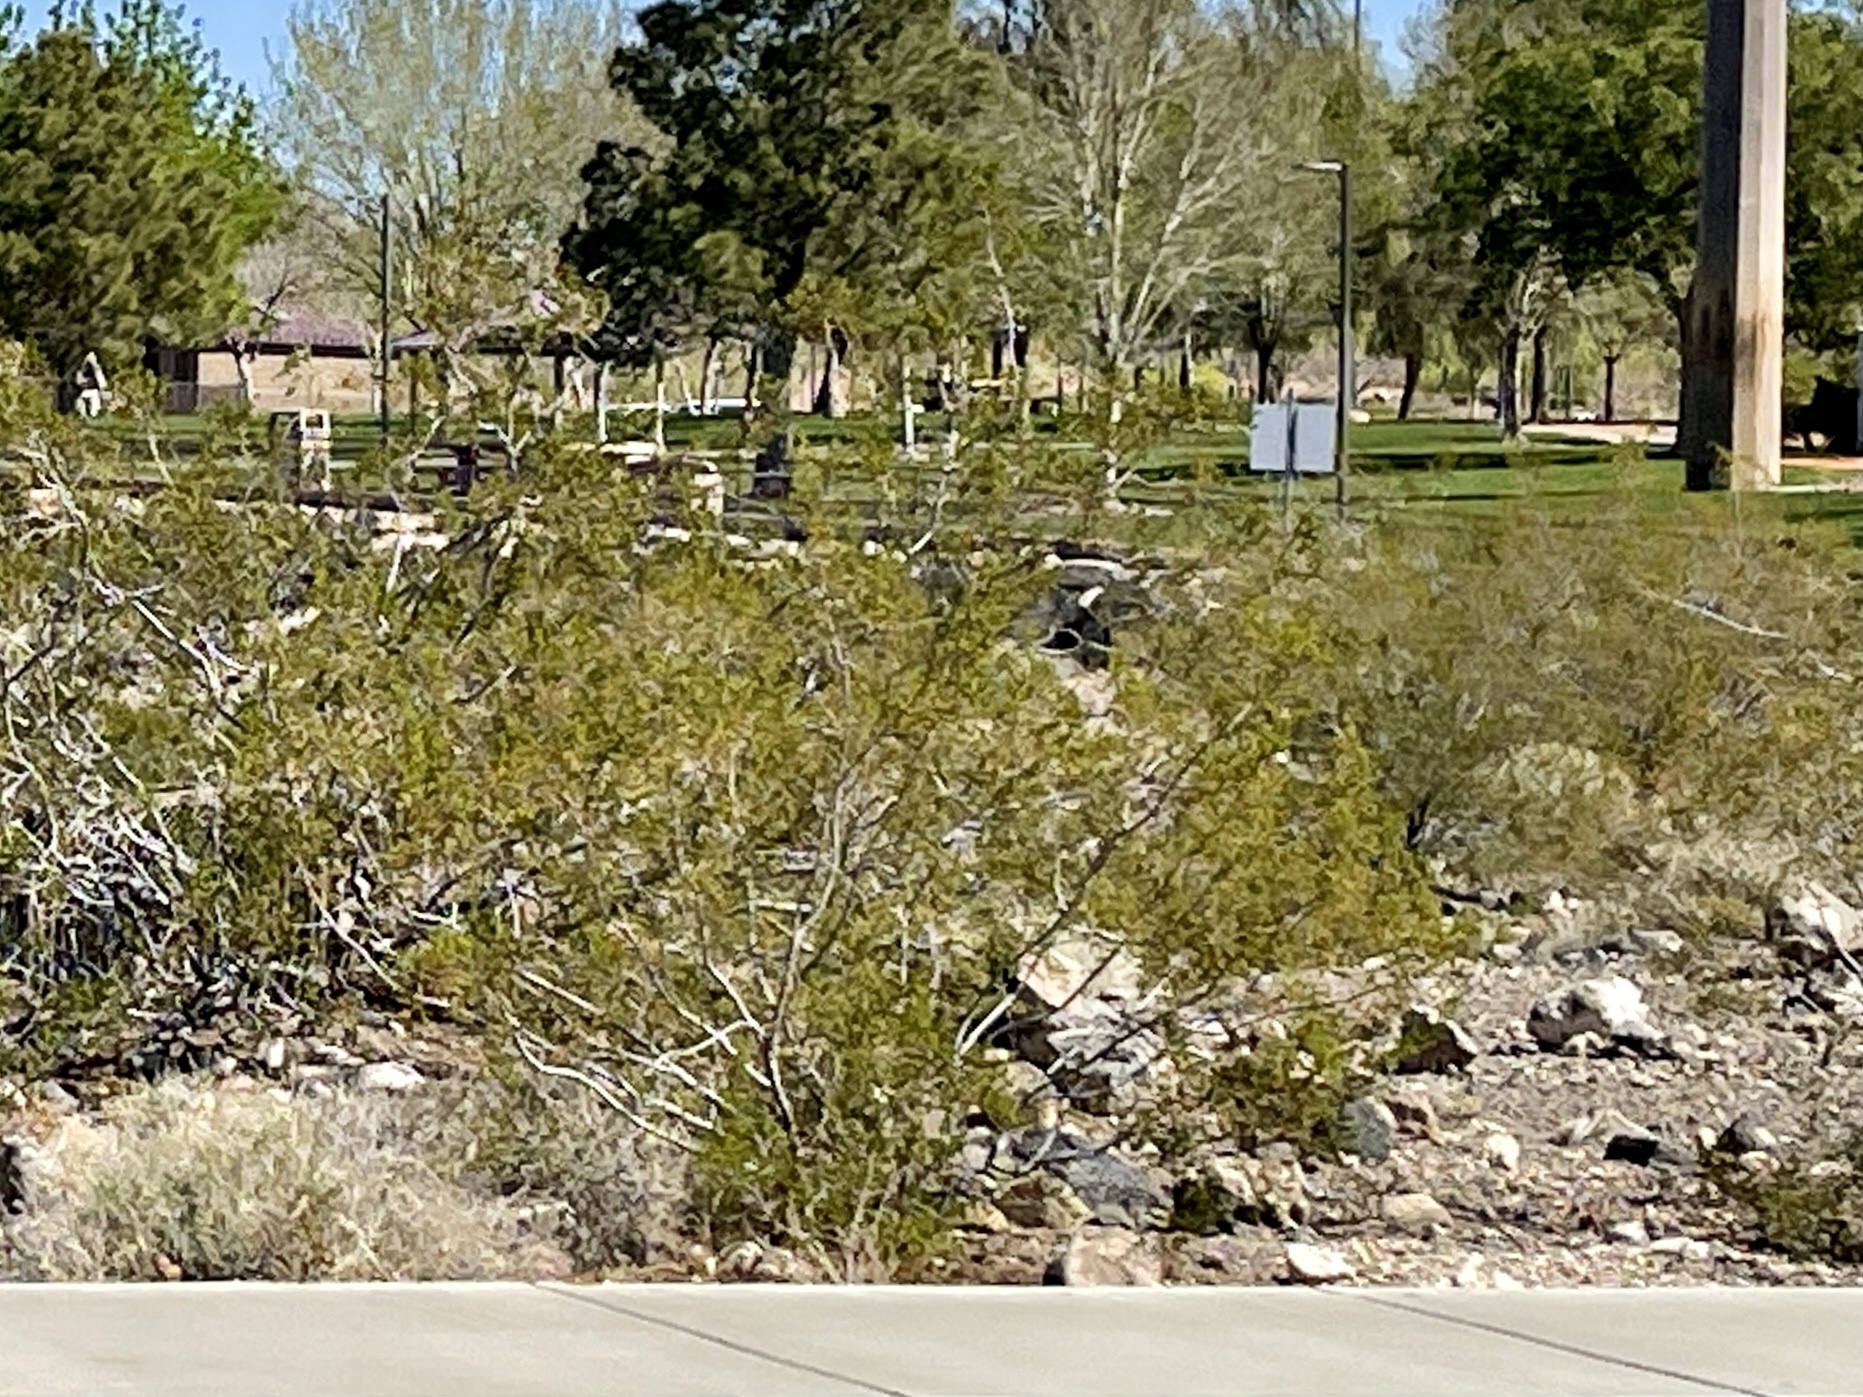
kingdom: Plantae
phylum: Tracheophyta
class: Magnoliopsida
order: Zygophyllales
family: Zygophyllaceae
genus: Larrea
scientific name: Larrea tridentata
